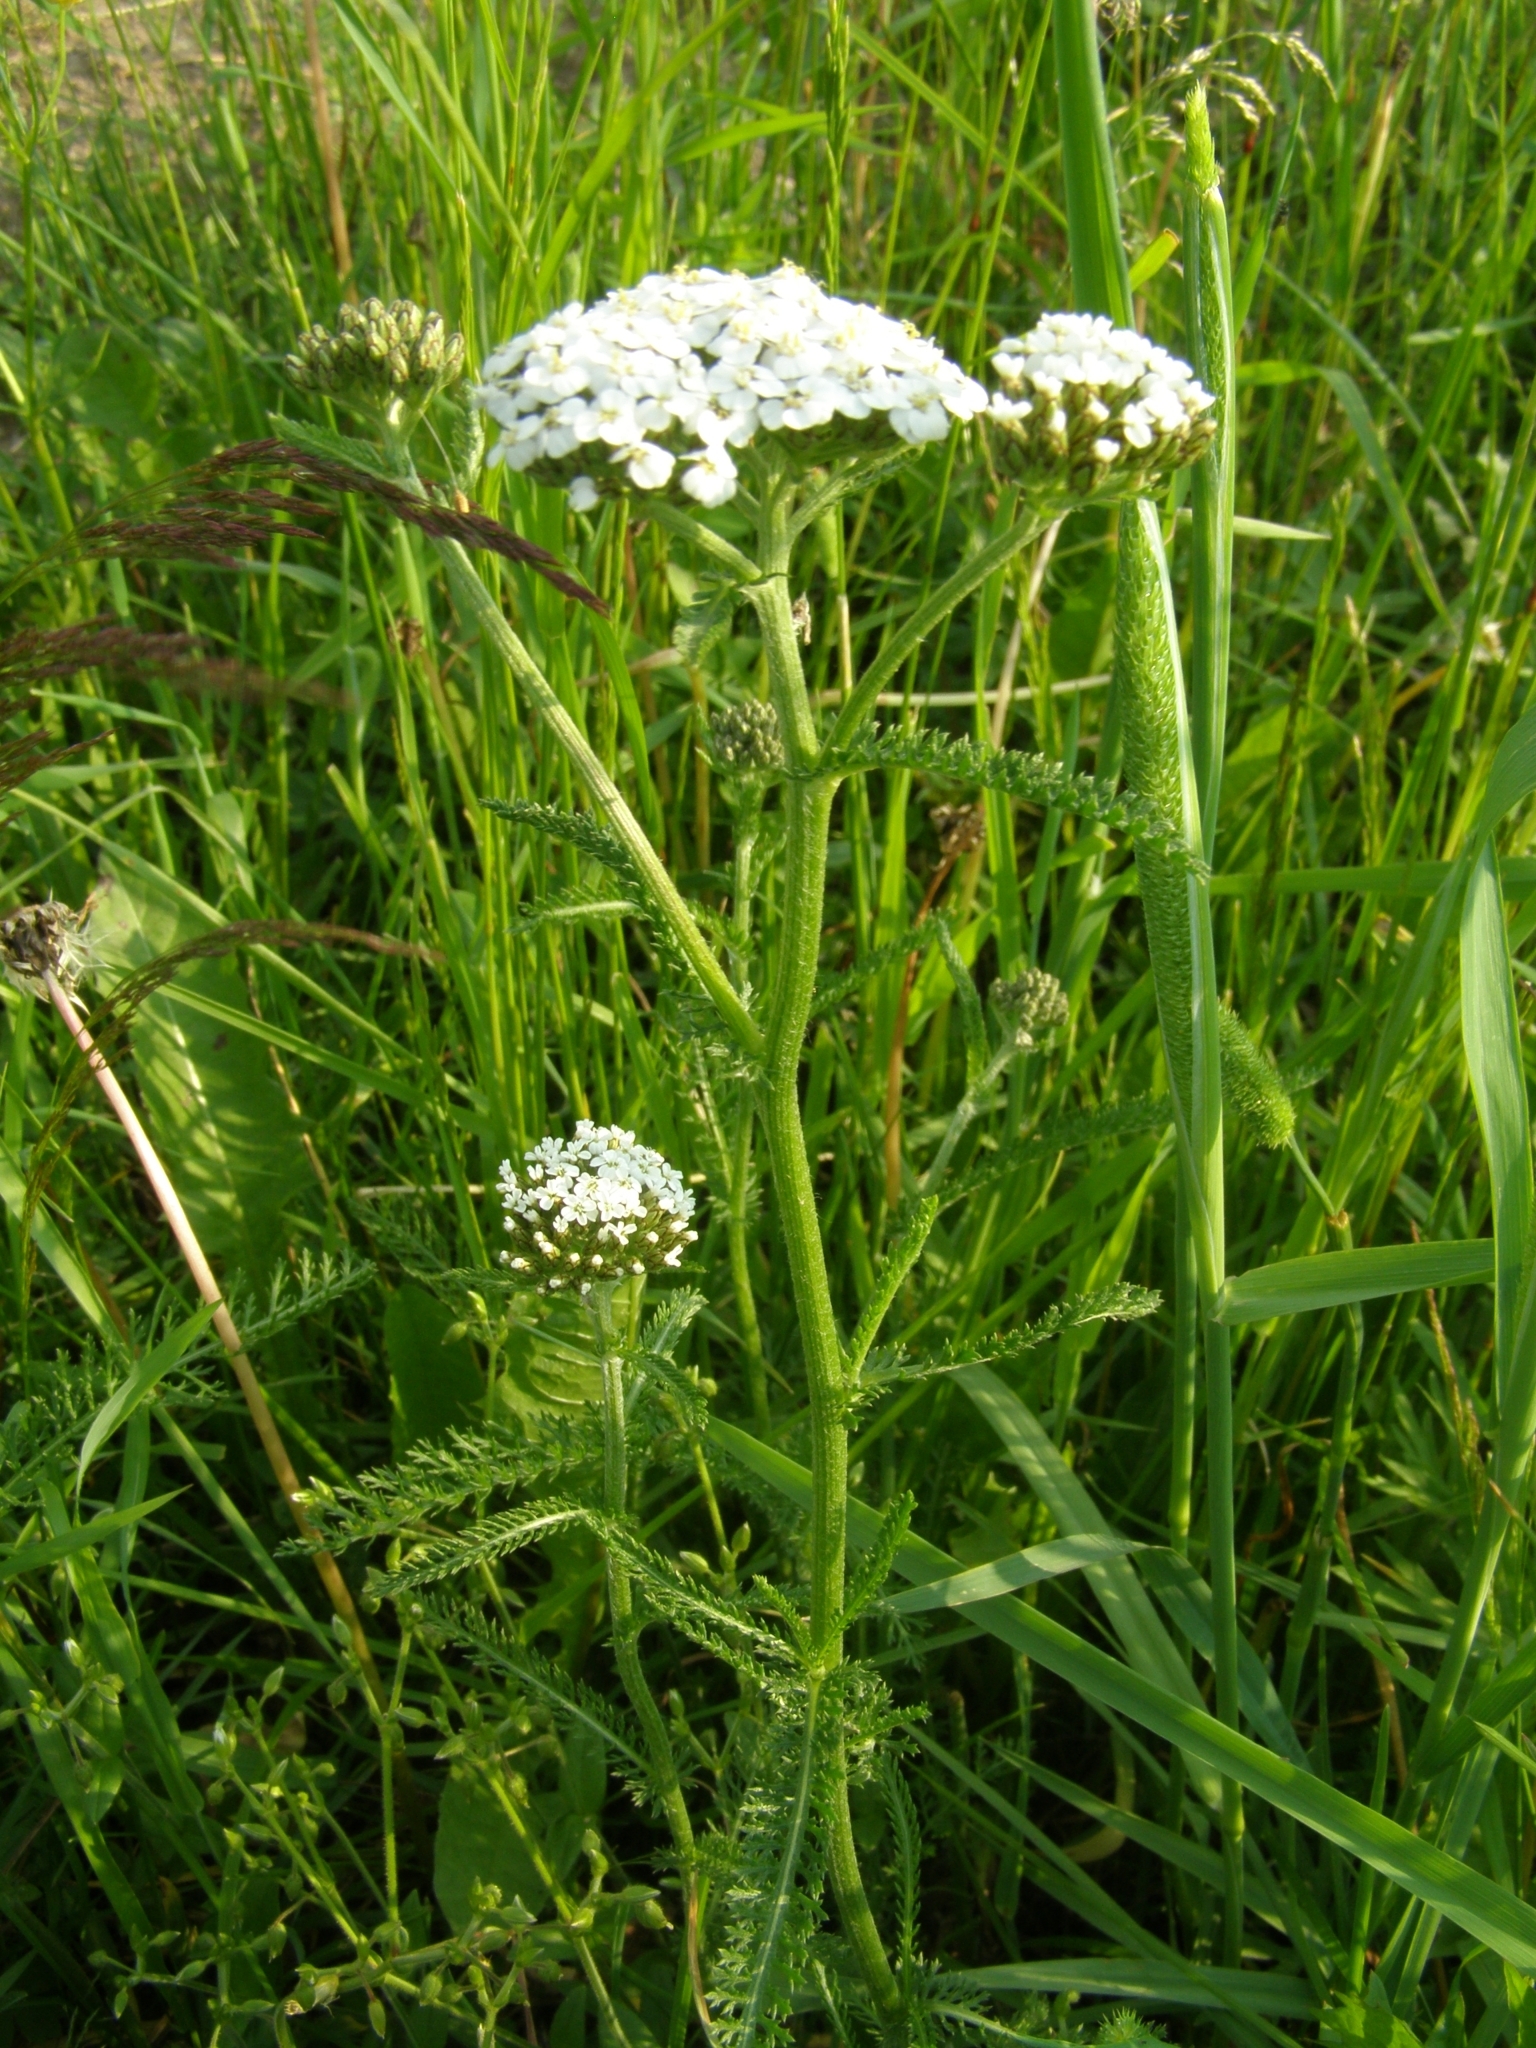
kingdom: Plantae
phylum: Tracheophyta
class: Magnoliopsida
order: Asterales
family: Asteraceae
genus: Achillea
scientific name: Achillea millefolium
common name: Yarrow
